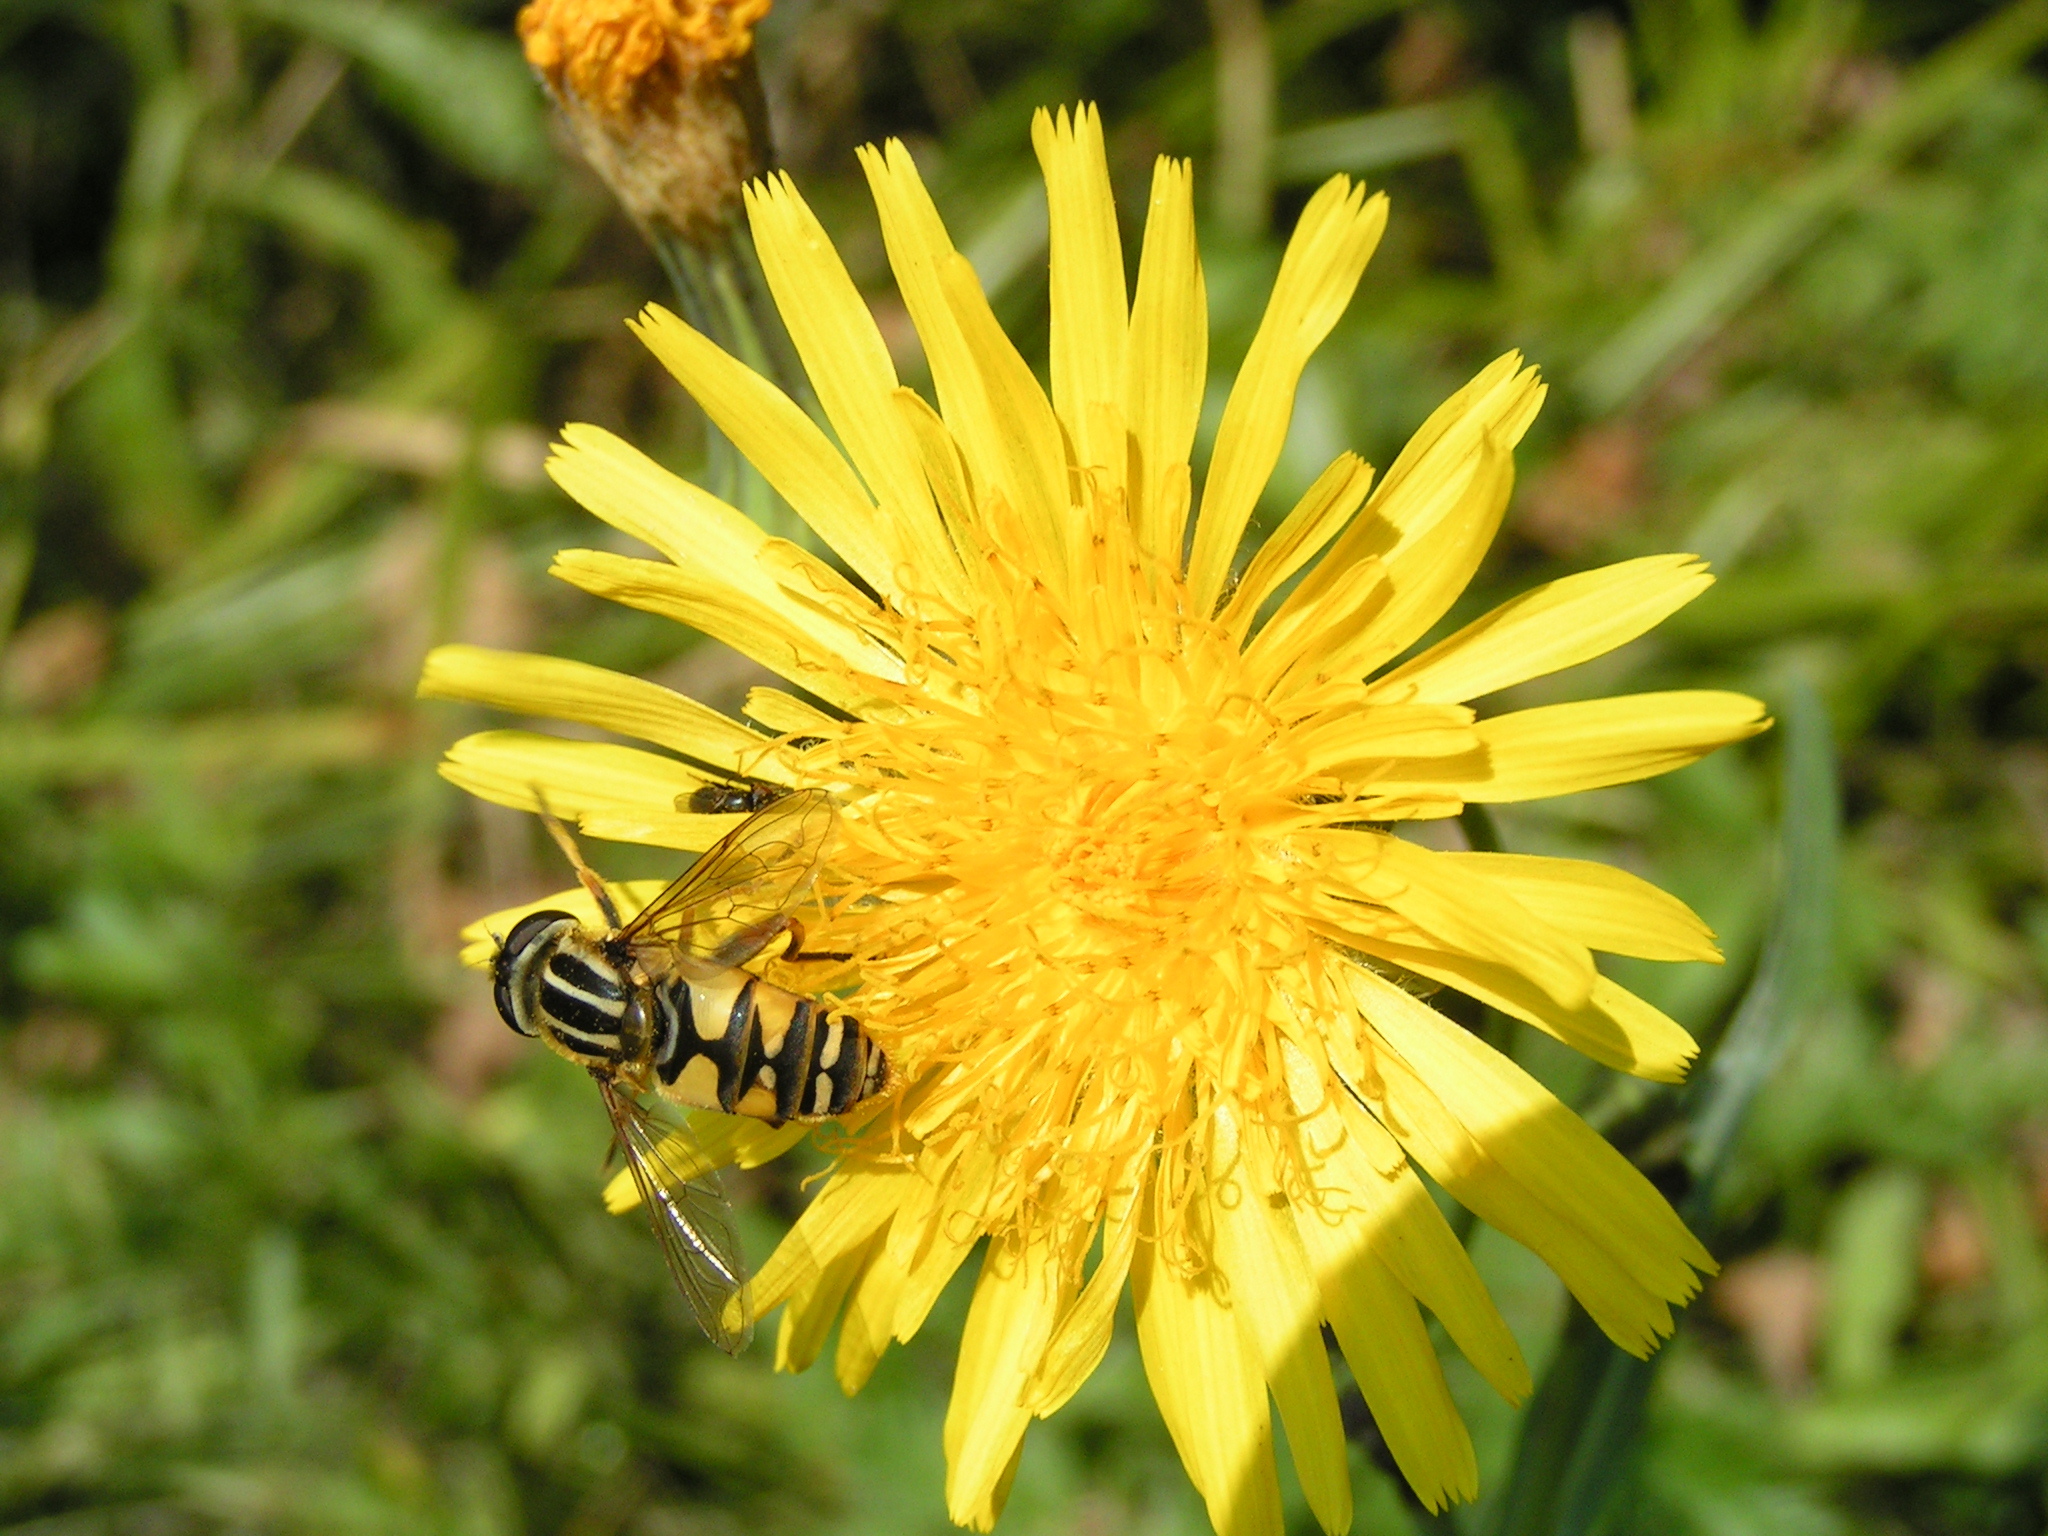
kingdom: Animalia
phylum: Arthropoda
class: Insecta
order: Diptera
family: Syrphidae
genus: Helophilus
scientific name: Helophilus pendulus
